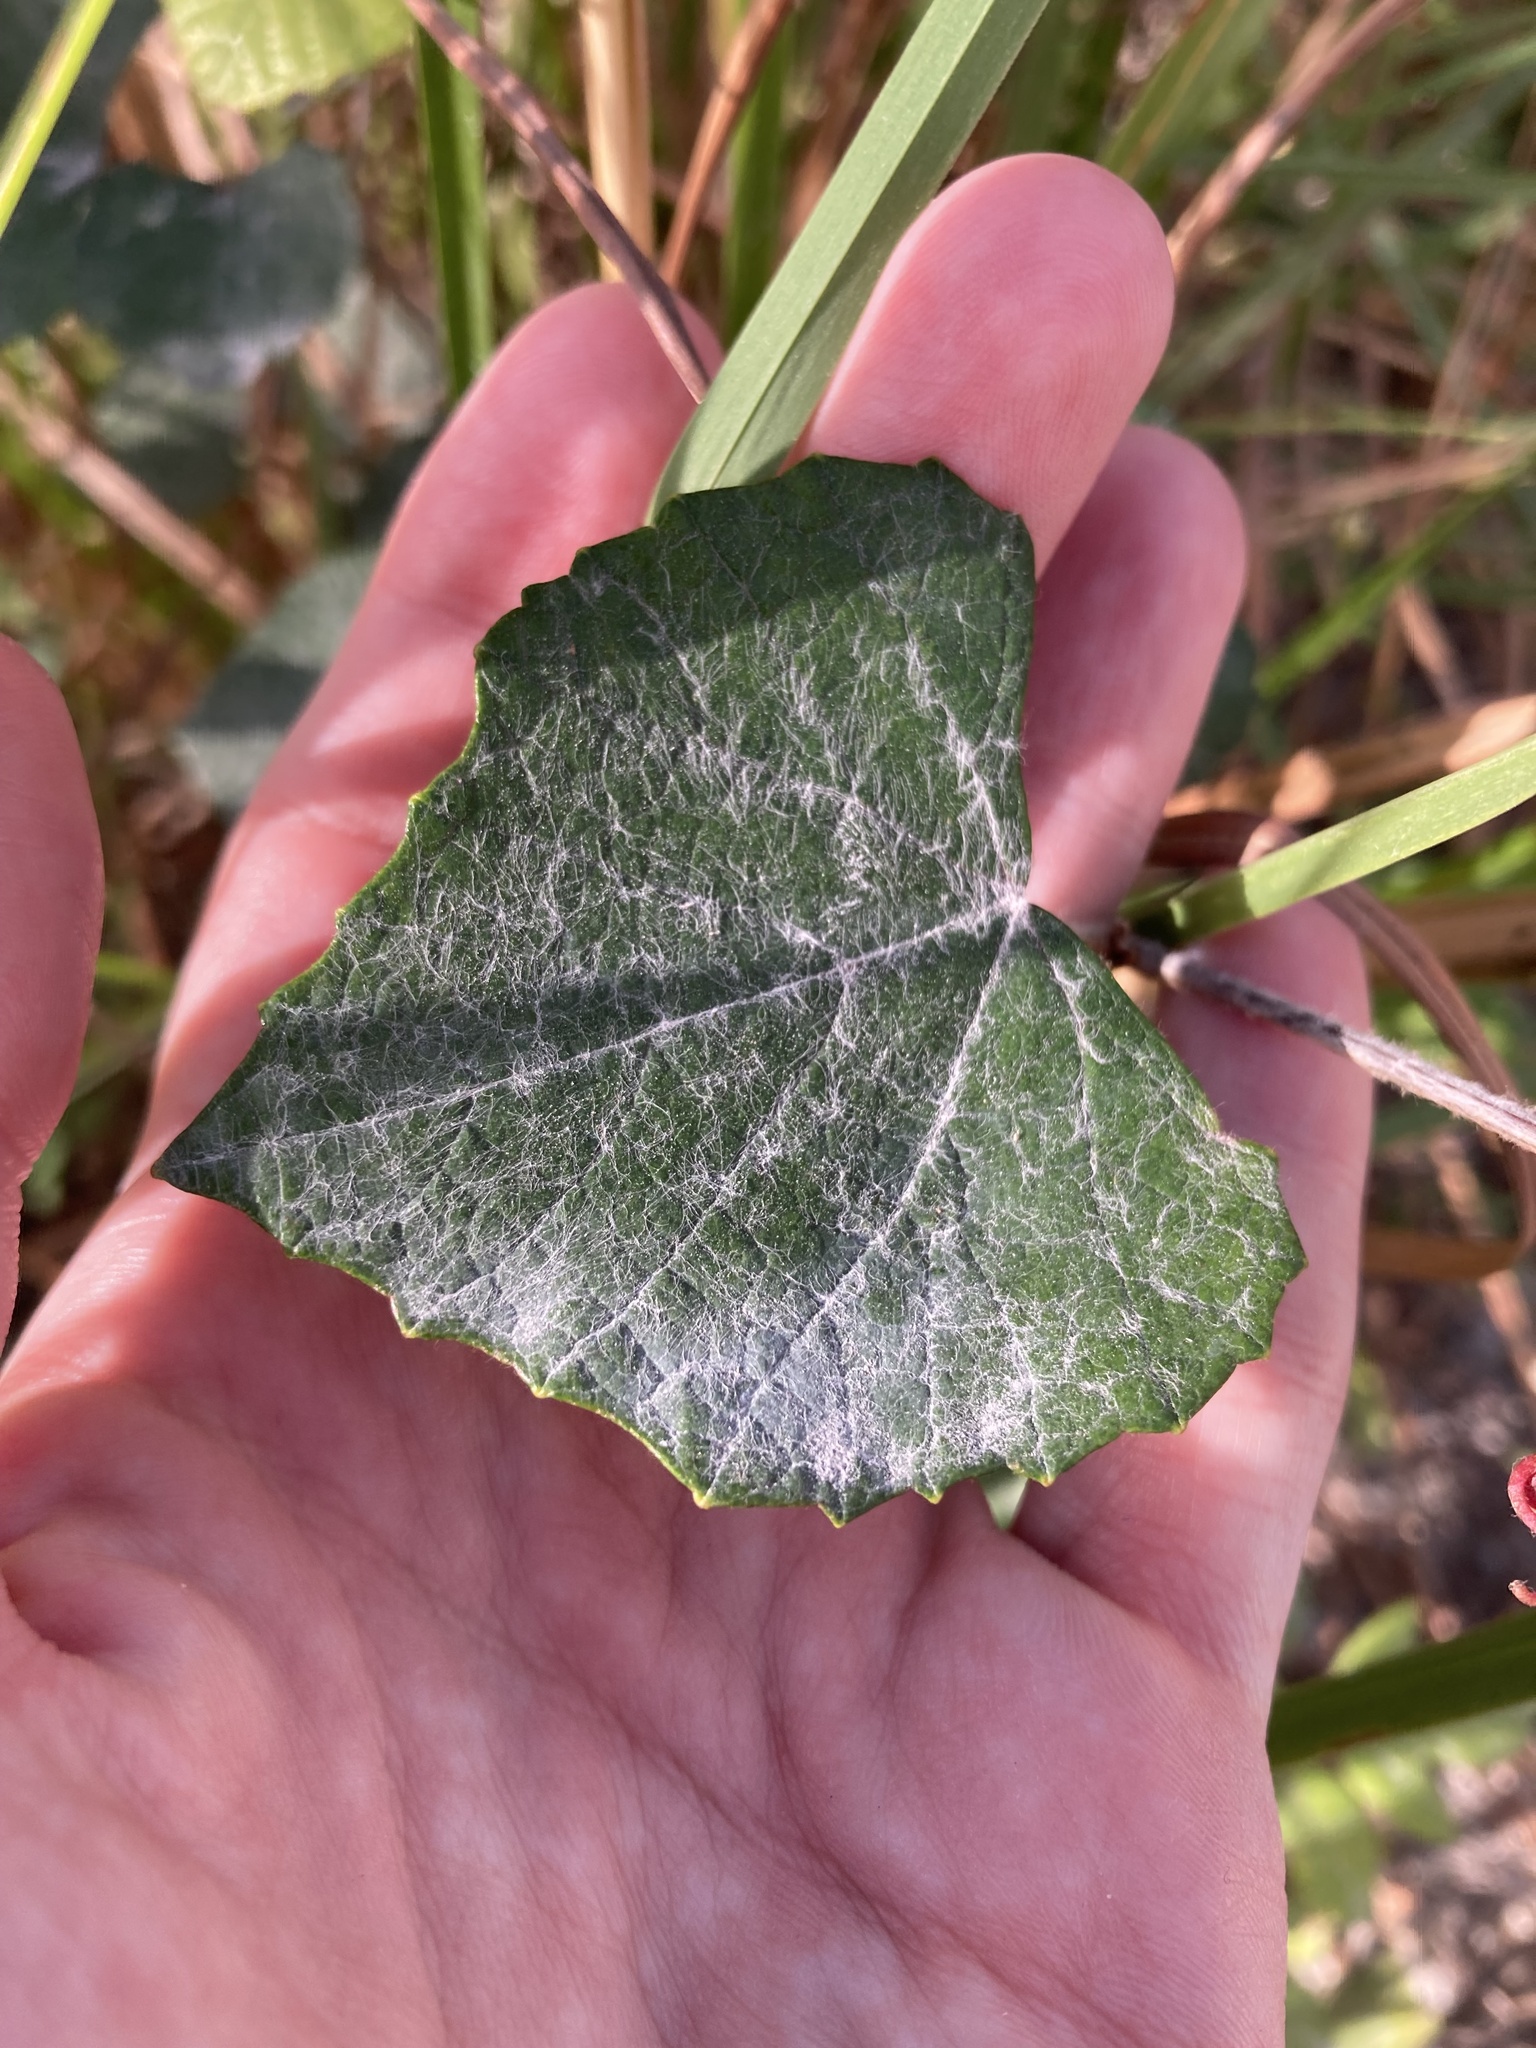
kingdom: Plantae
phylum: Tracheophyta
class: Magnoliopsida
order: Vitales
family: Vitaceae
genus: Vitis
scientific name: Vitis shuttleworthii
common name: Caloosa grape
